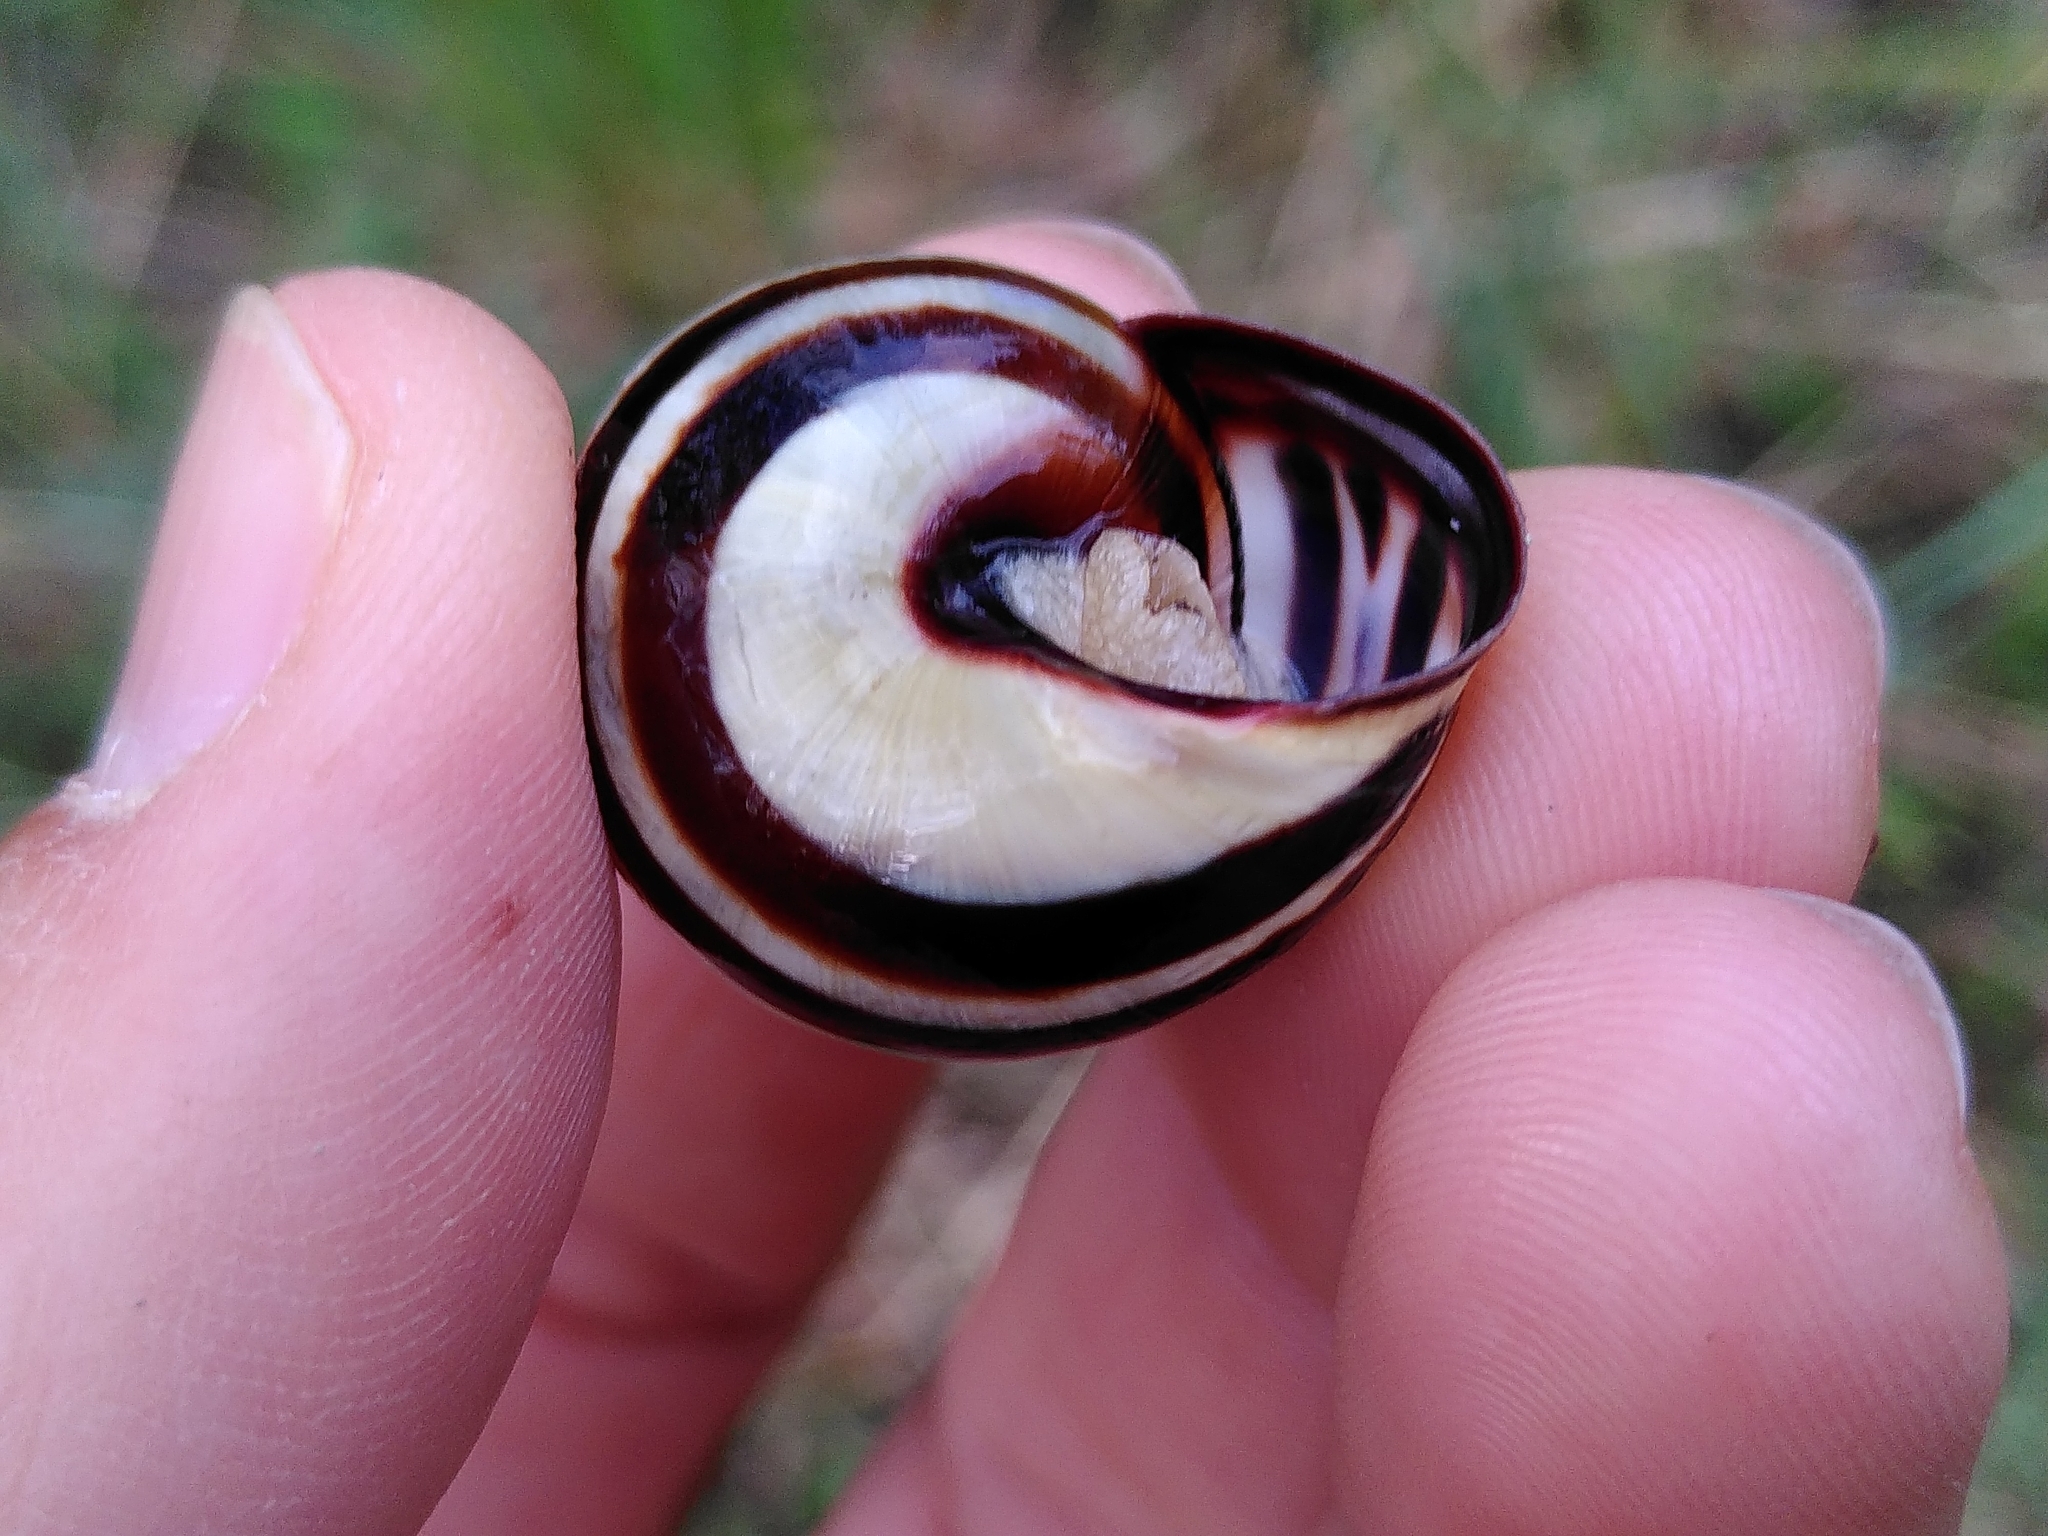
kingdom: Animalia
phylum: Mollusca
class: Gastropoda
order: Stylommatophora
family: Helicidae
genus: Cepaea
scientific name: Cepaea nemoralis
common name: Grovesnail
